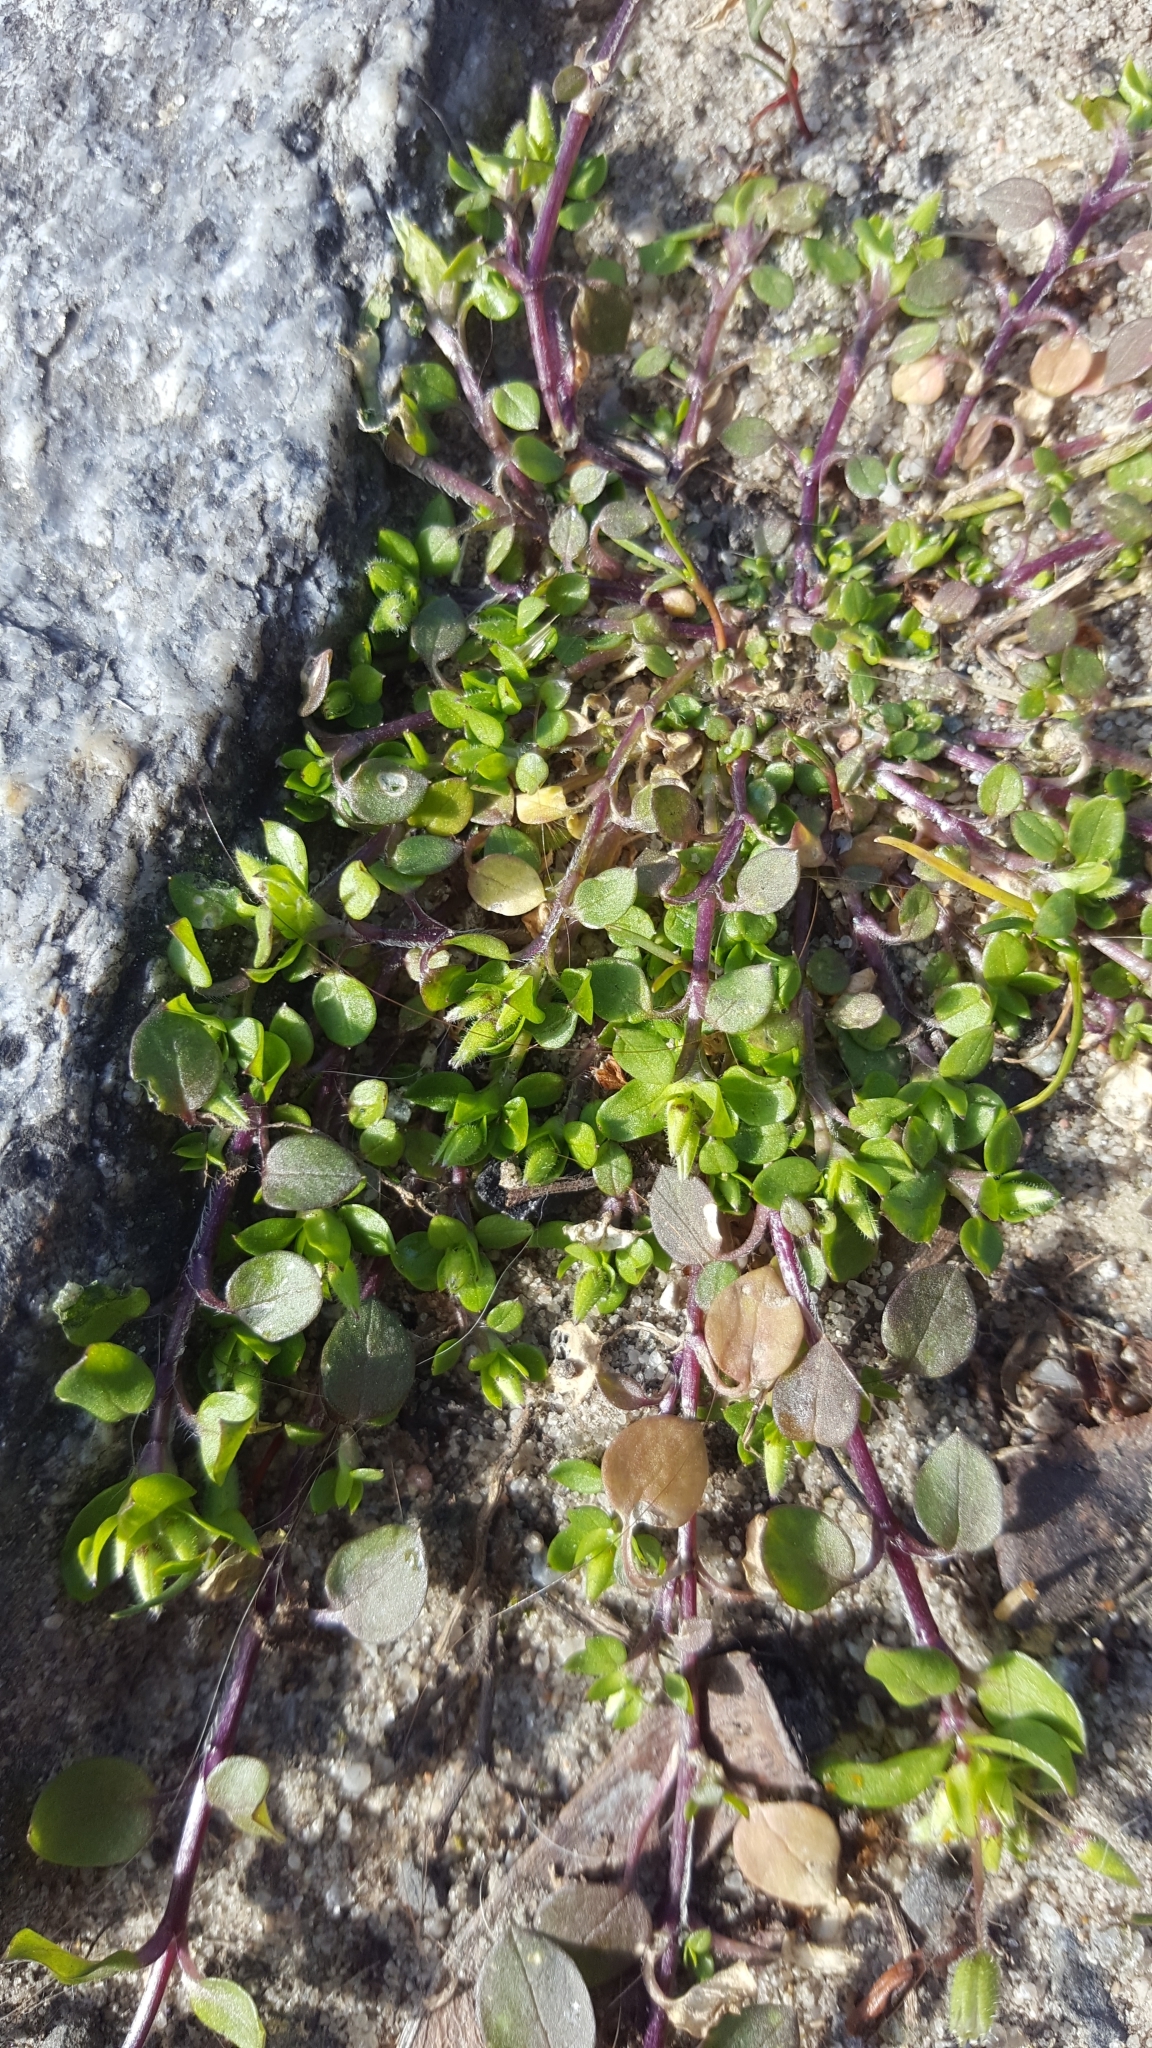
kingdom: Plantae
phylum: Tracheophyta
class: Magnoliopsida
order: Caryophyllales
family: Caryophyllaceae
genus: Stellaria
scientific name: Stellaria media
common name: Common chickweed
